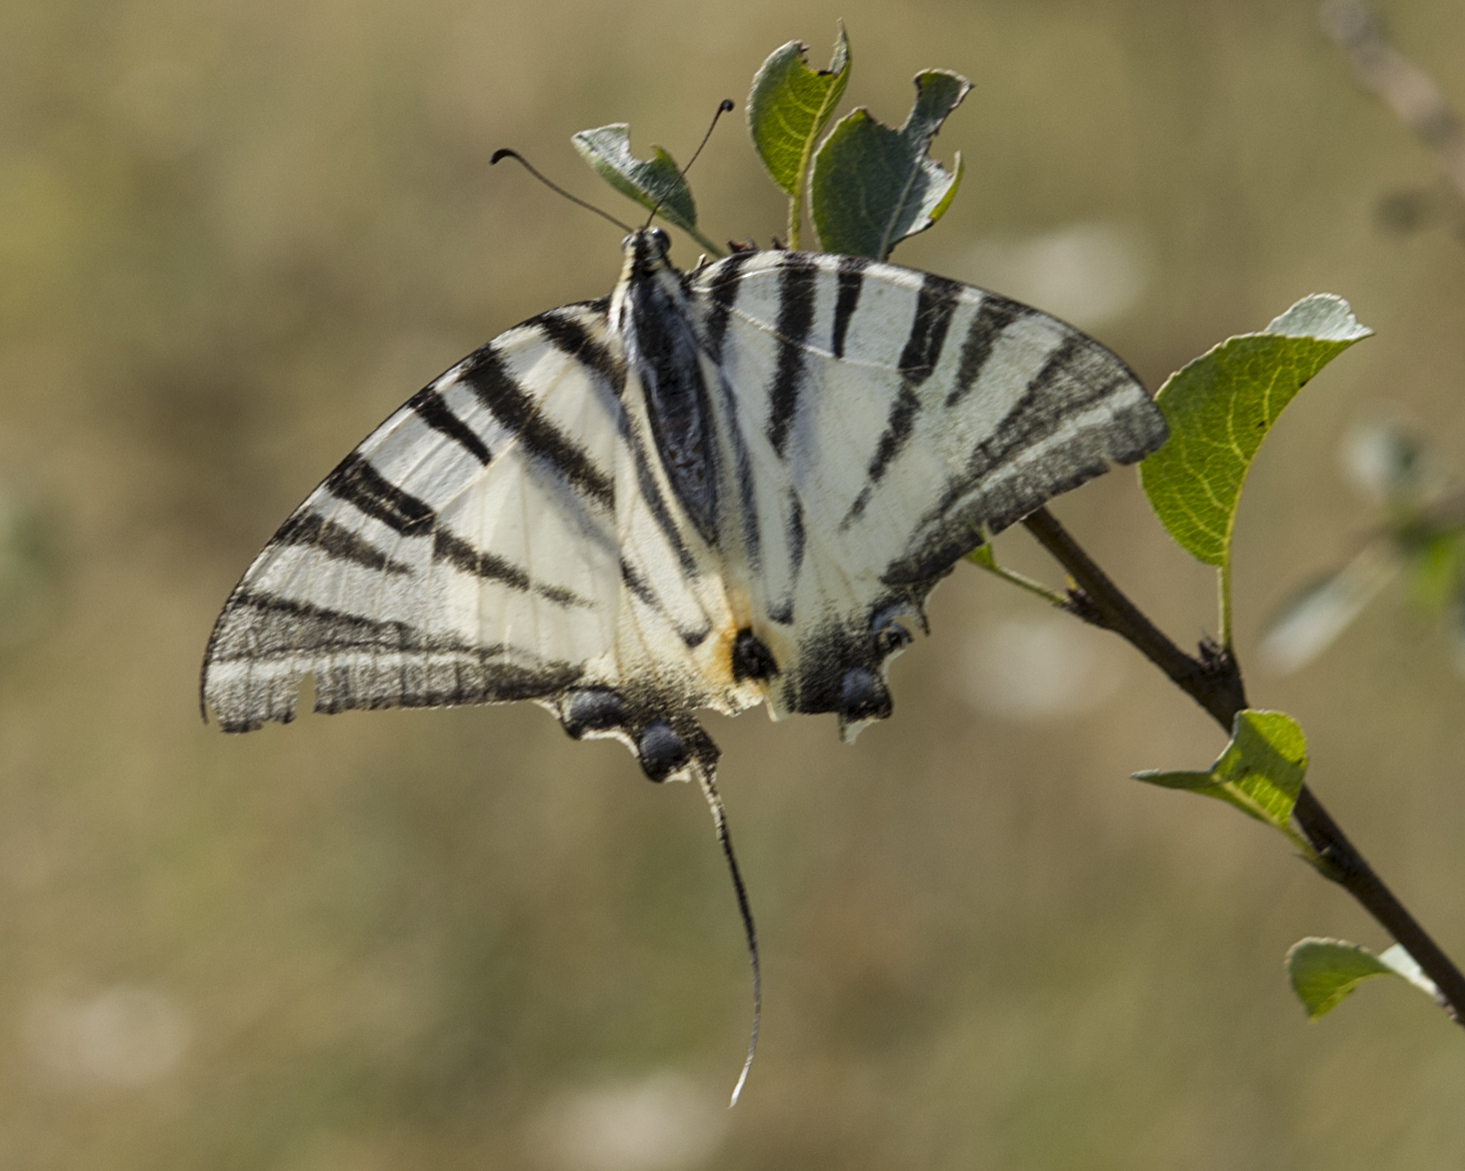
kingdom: Animalia
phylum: Arthropoda
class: Insecta
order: Lepidoptera
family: Papilionidae
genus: Iphiclides
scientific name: Iphiclides podalirius
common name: Scarce swallowtail
